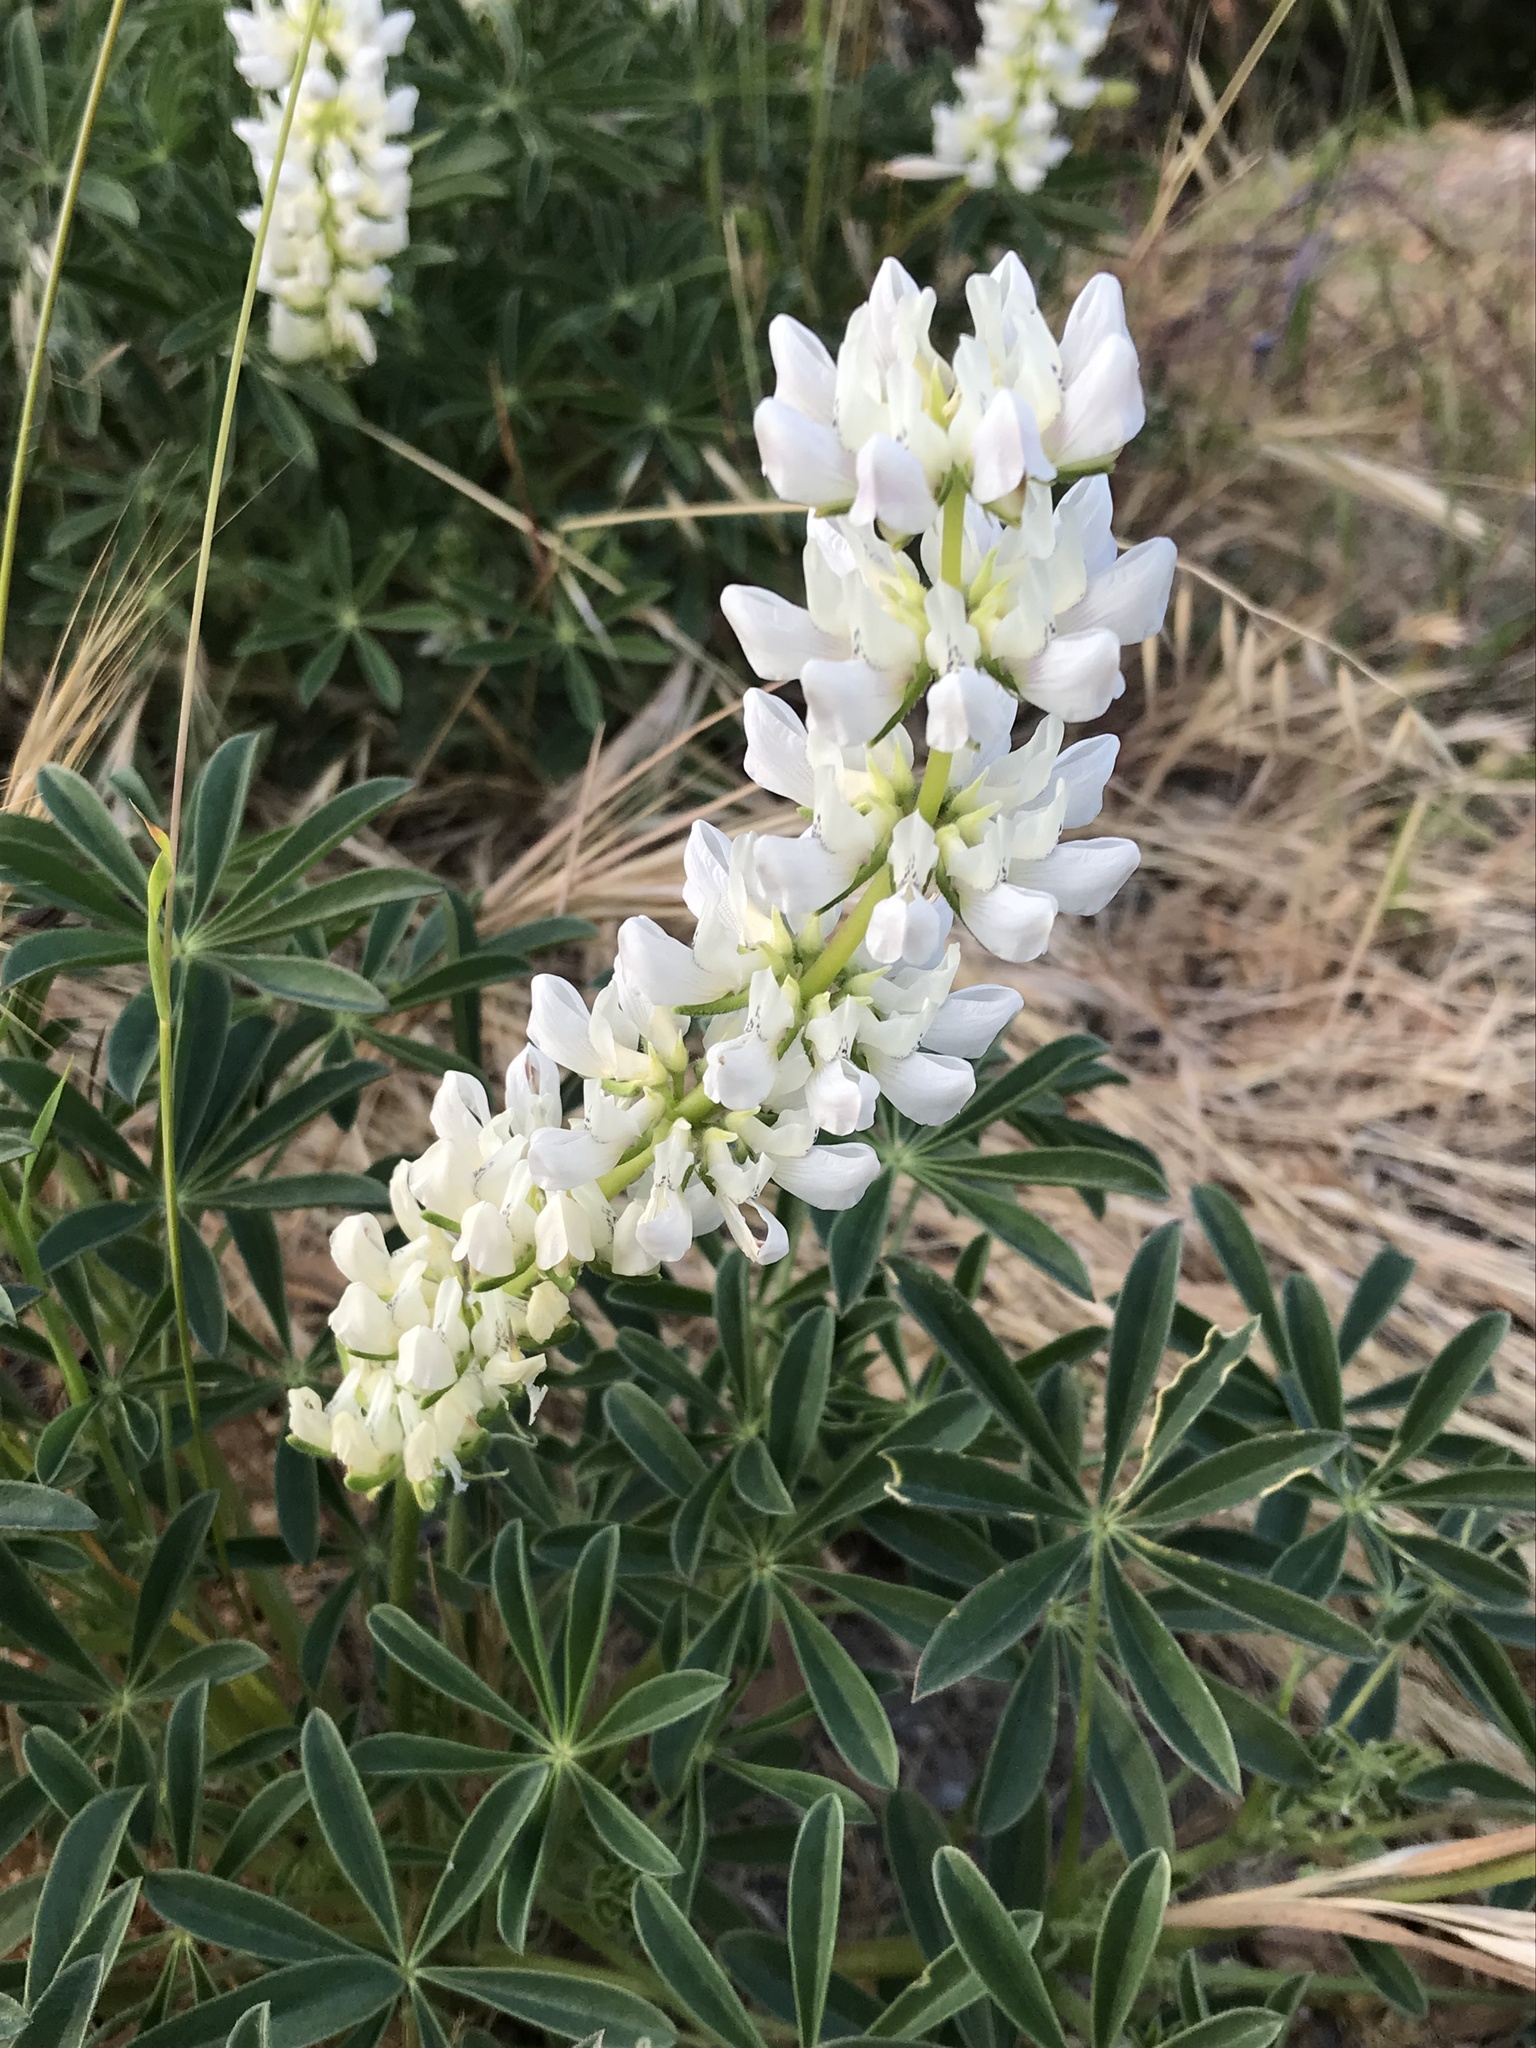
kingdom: Plantae
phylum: Tracheophyta
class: Magnoliopsida
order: Fabales
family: Fabaceae
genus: Lupinus
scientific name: Lupinus microcarpus
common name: Chick lupine
